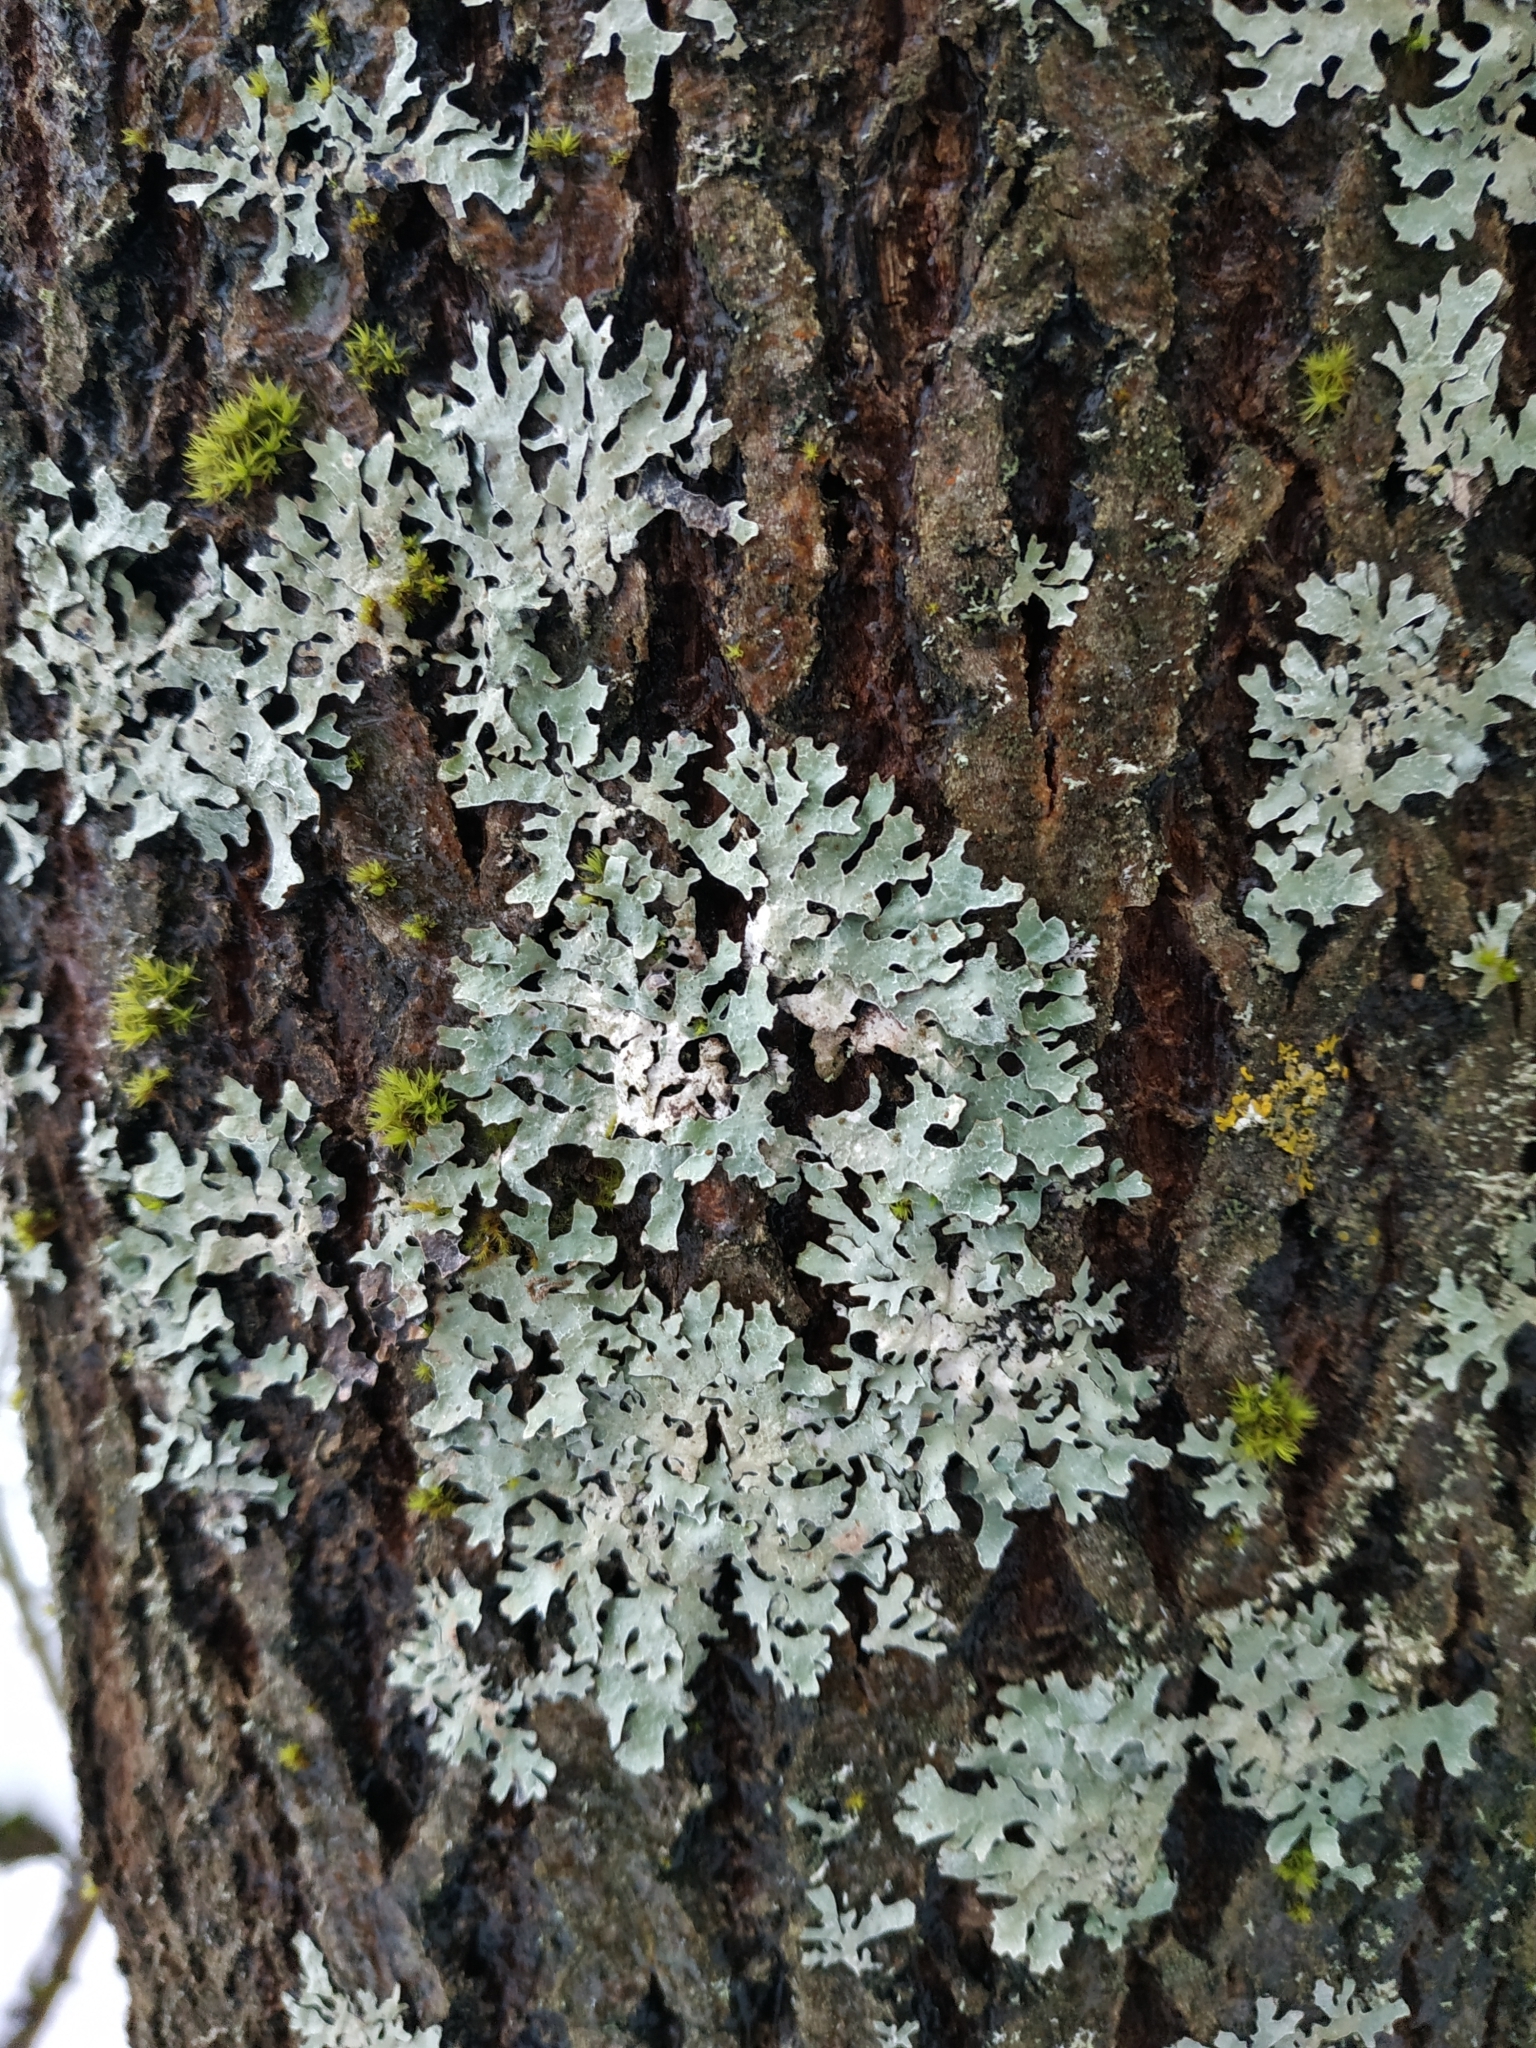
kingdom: Fungi
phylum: Ascomycota
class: Lecanoromycetes
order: Lecanorales
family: Parmeliaceae
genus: Parmelia
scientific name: Parmelia sulcata
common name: Netted shield lichen
